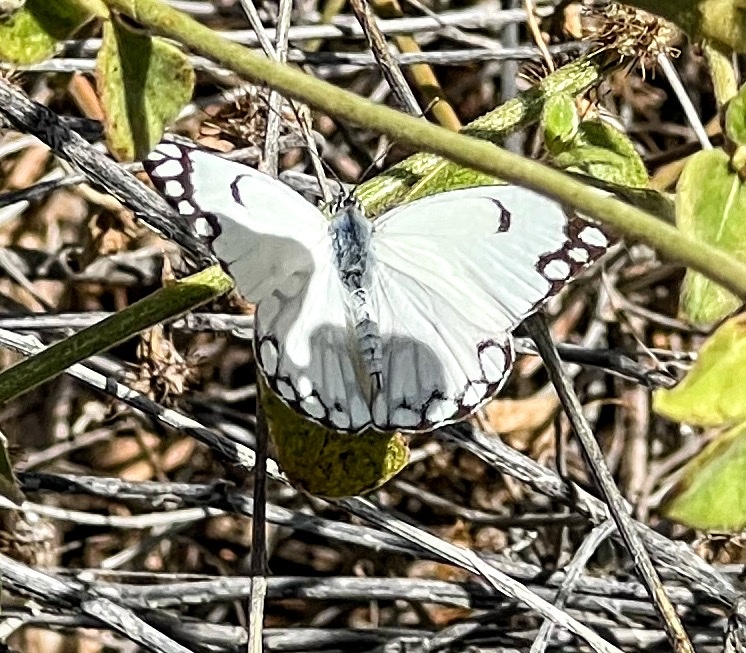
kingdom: Animalia
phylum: Arthropoda
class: Insecta
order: Lepidoptera
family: Pieridae
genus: Belenois
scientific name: Belenois aurota
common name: Brown-veined white
